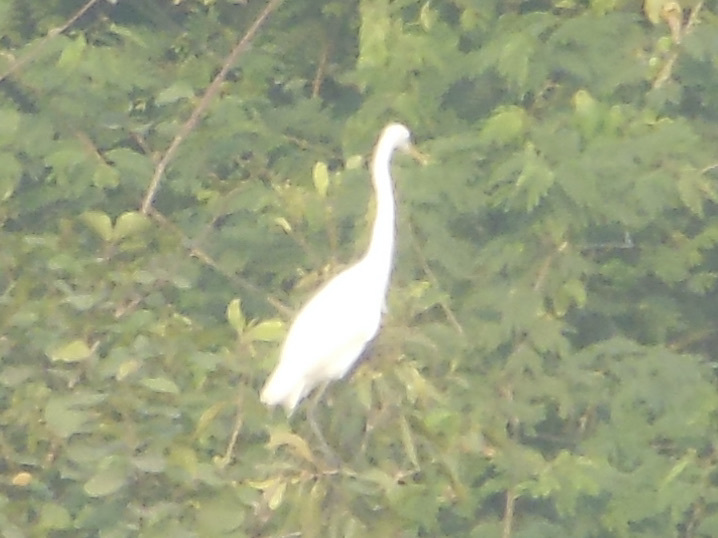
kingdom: Animalia
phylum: Chordata
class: Aves
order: Pelecaniformes
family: Ardeidae
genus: Egretta
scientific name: Egretta intermedia
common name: Intermediate egret
